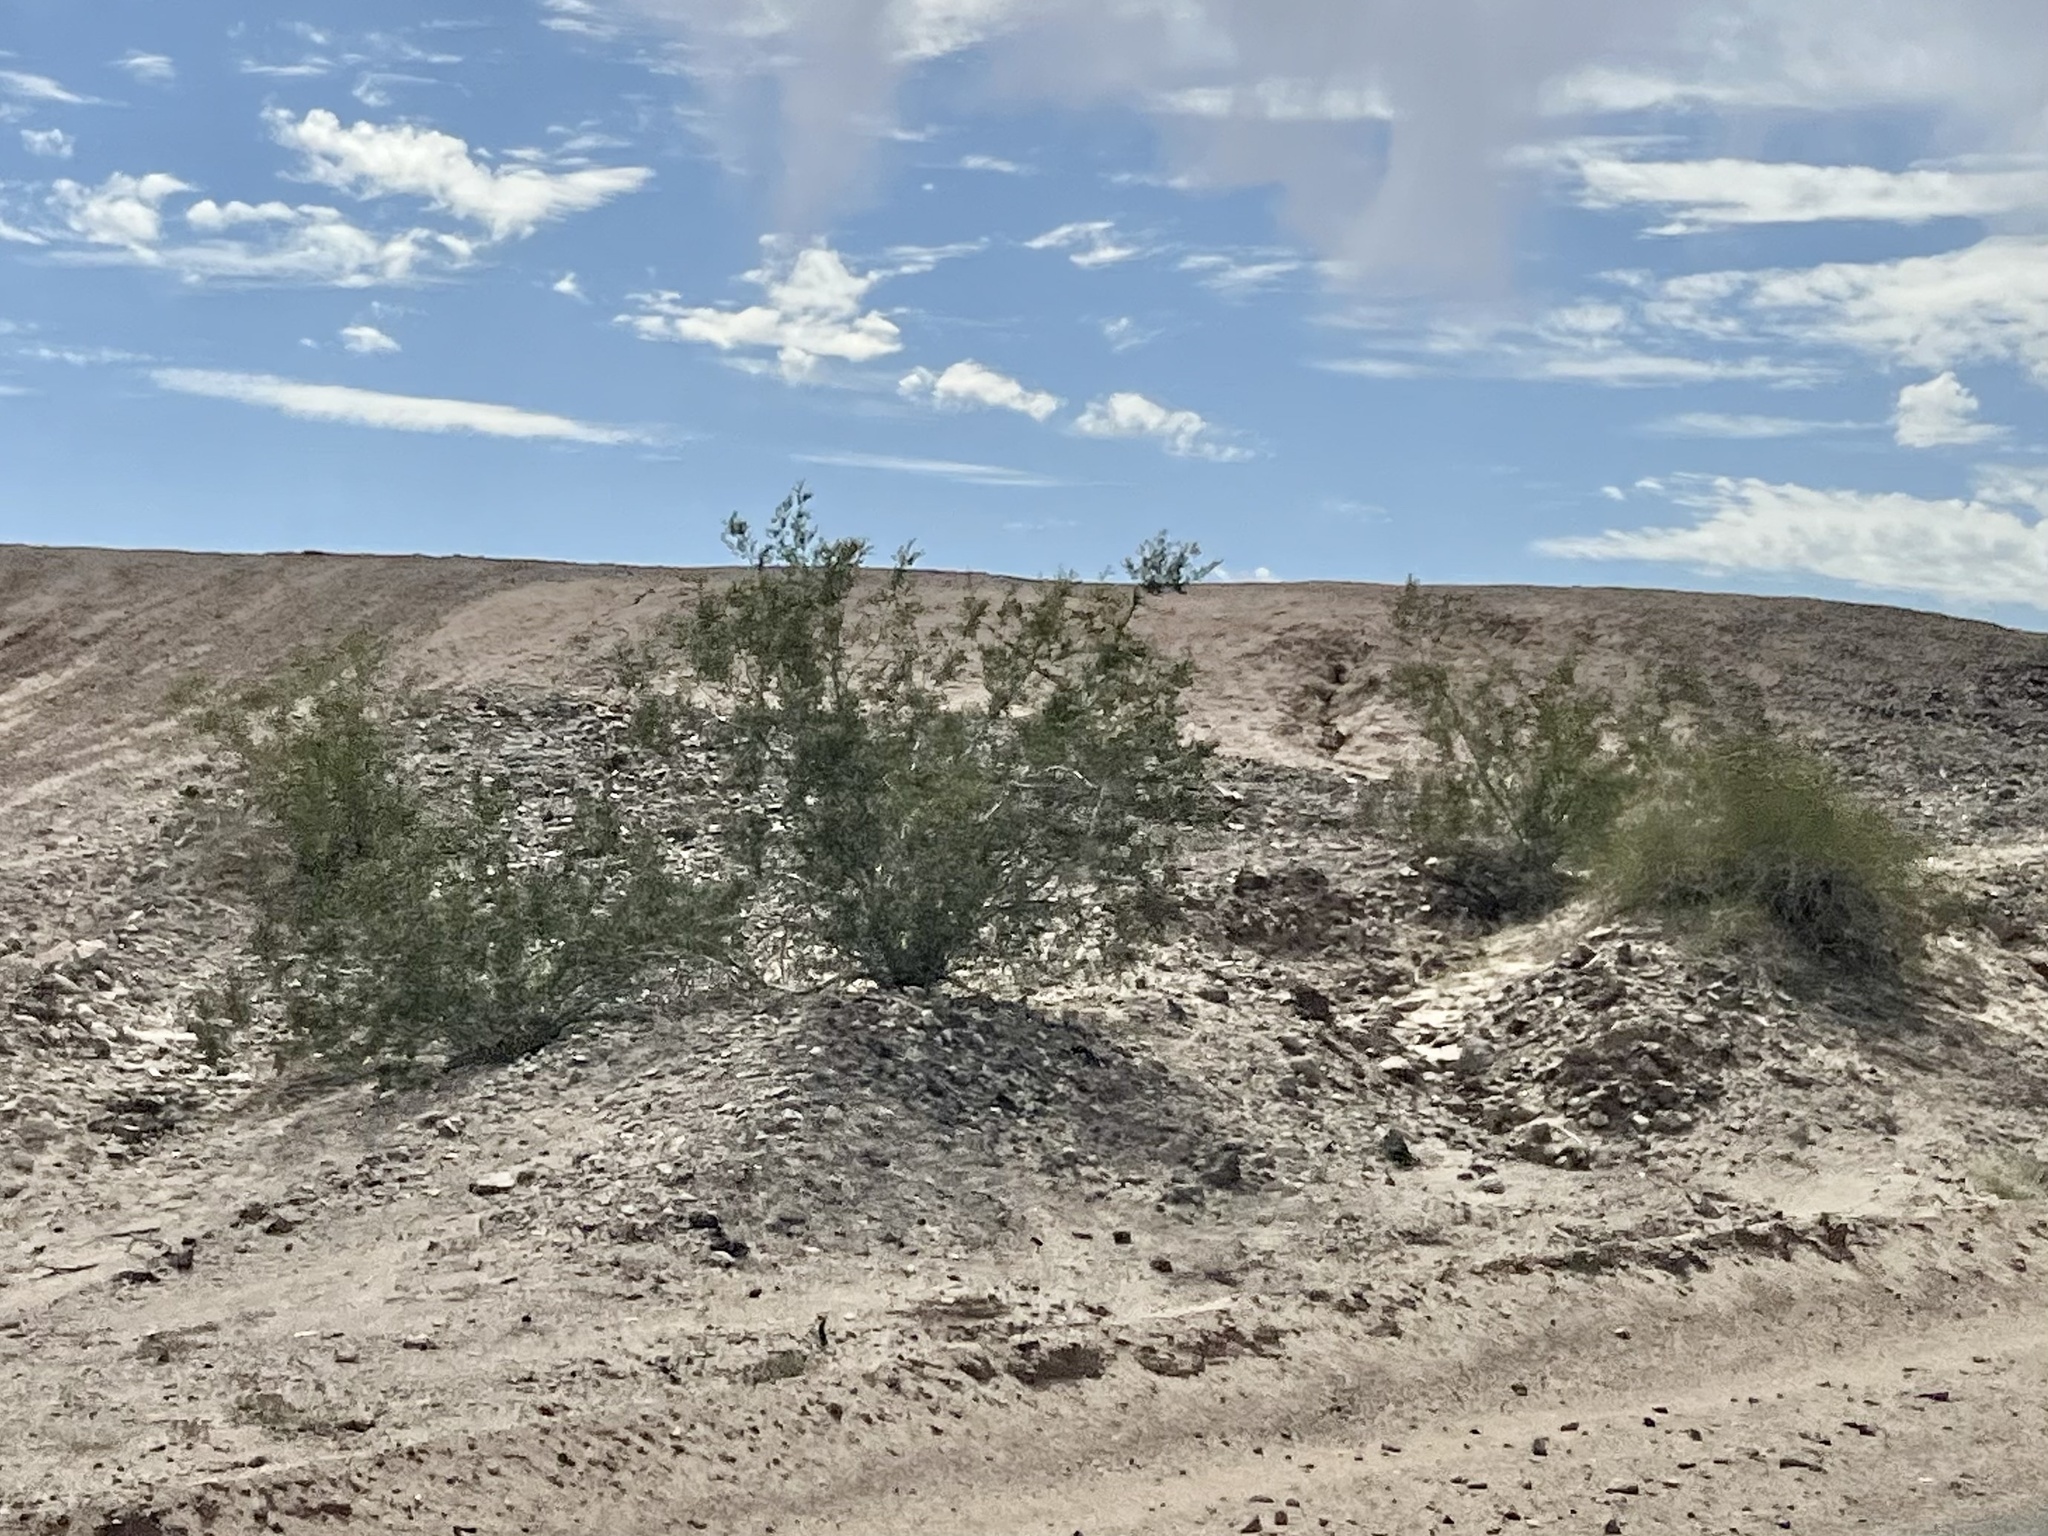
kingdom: Plantae
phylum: Tracheophyta
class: Magnoliopsida
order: Zygophyllales
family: Zygophyllaceae
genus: Larrea
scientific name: Larrea tridentata
